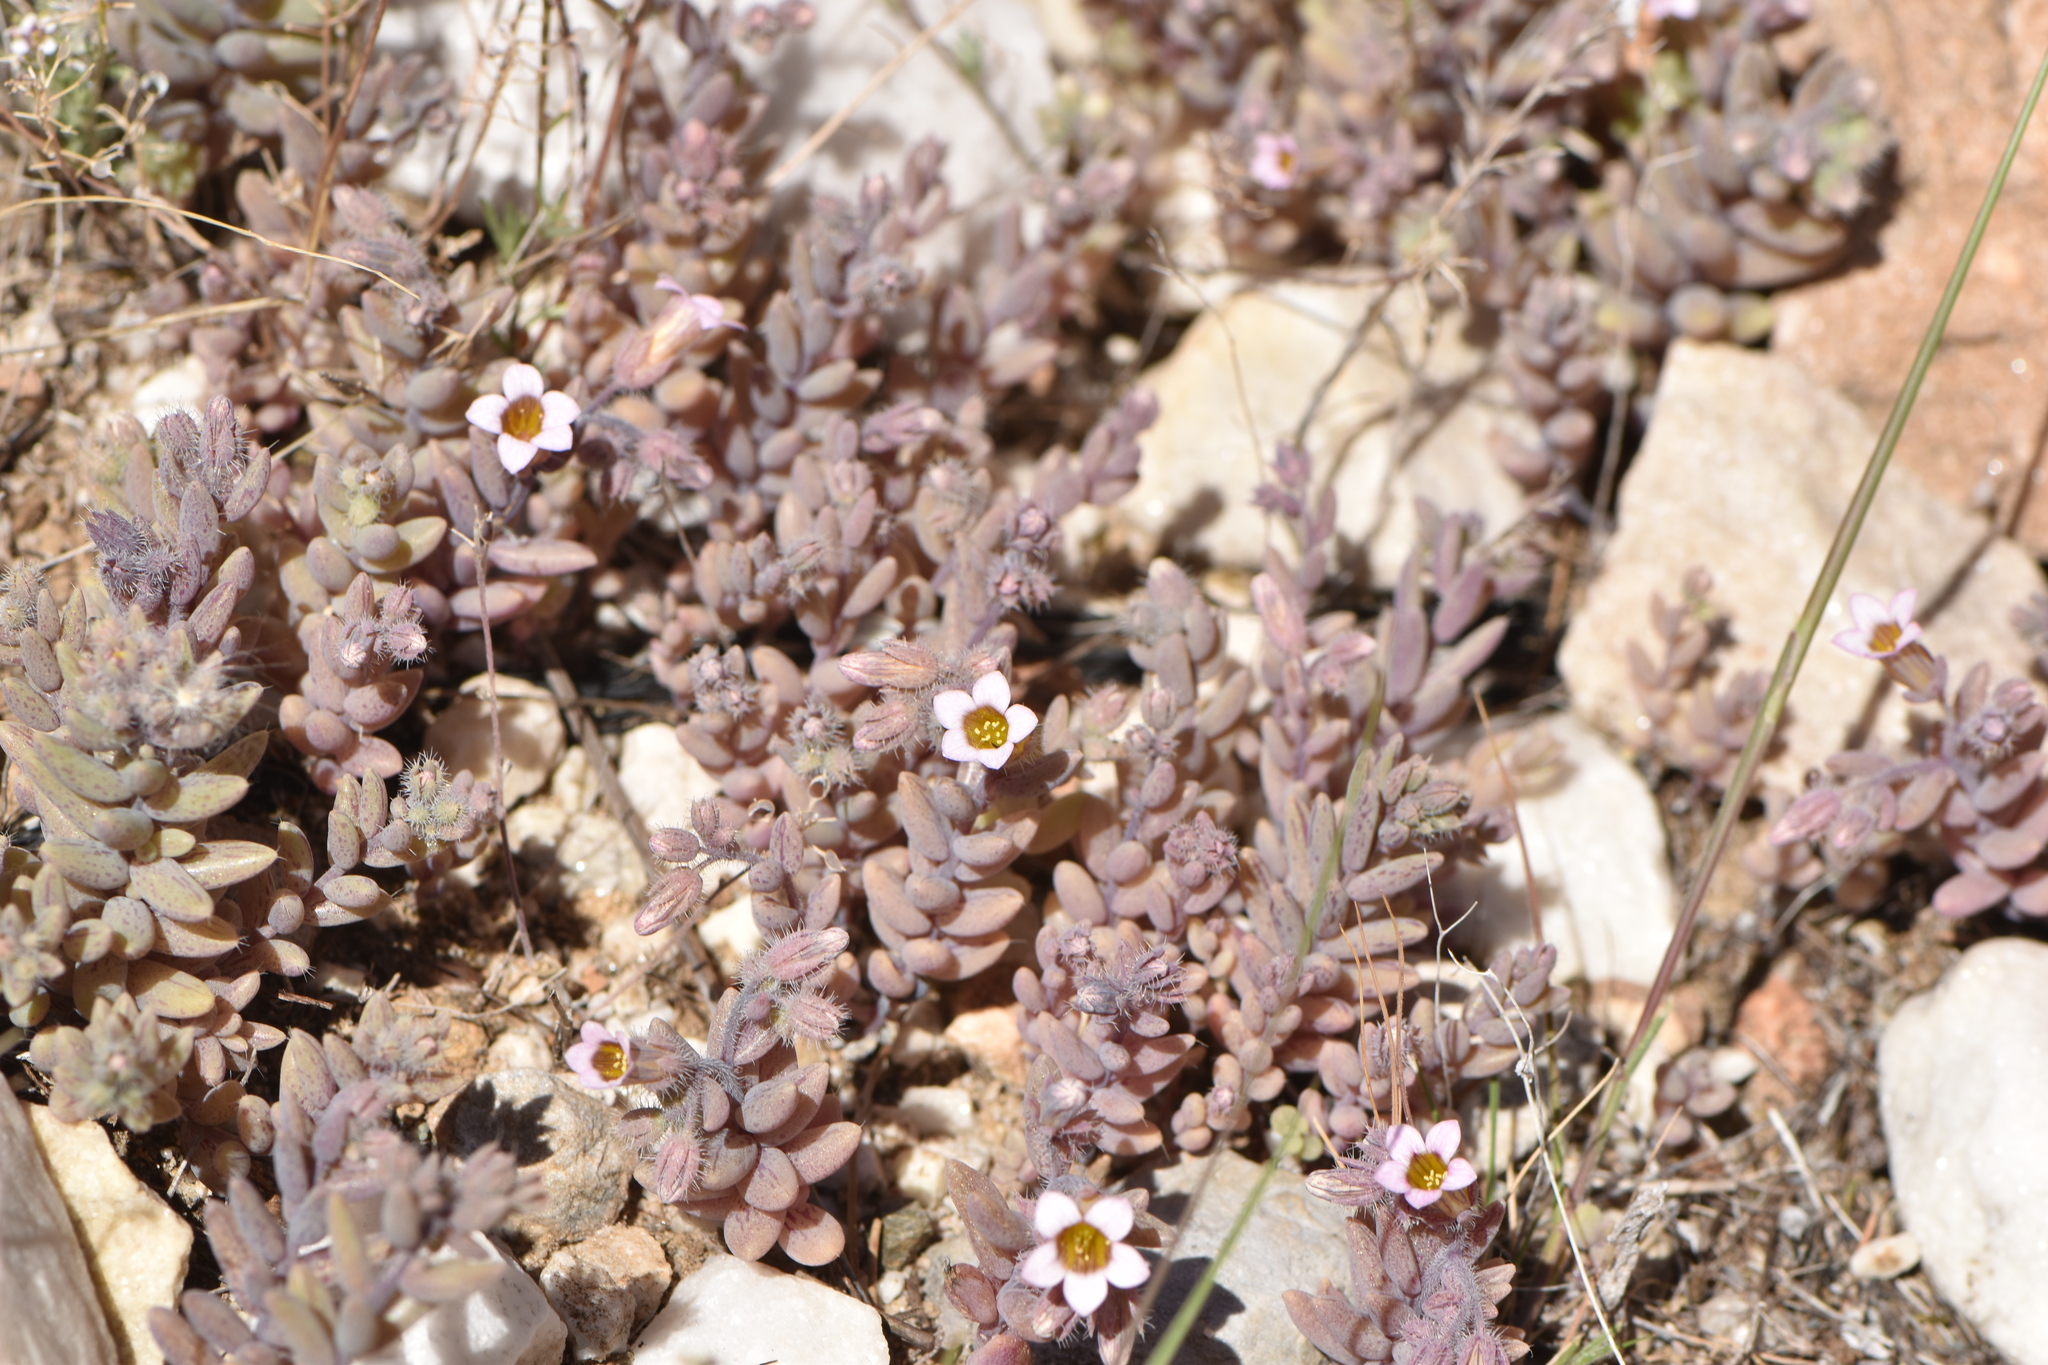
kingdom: Plantae
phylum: Tracheophyta
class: Magnoliopsida
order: Saxifragales
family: Crassulaceae
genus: Sedum
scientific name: Sedum mucizonia
